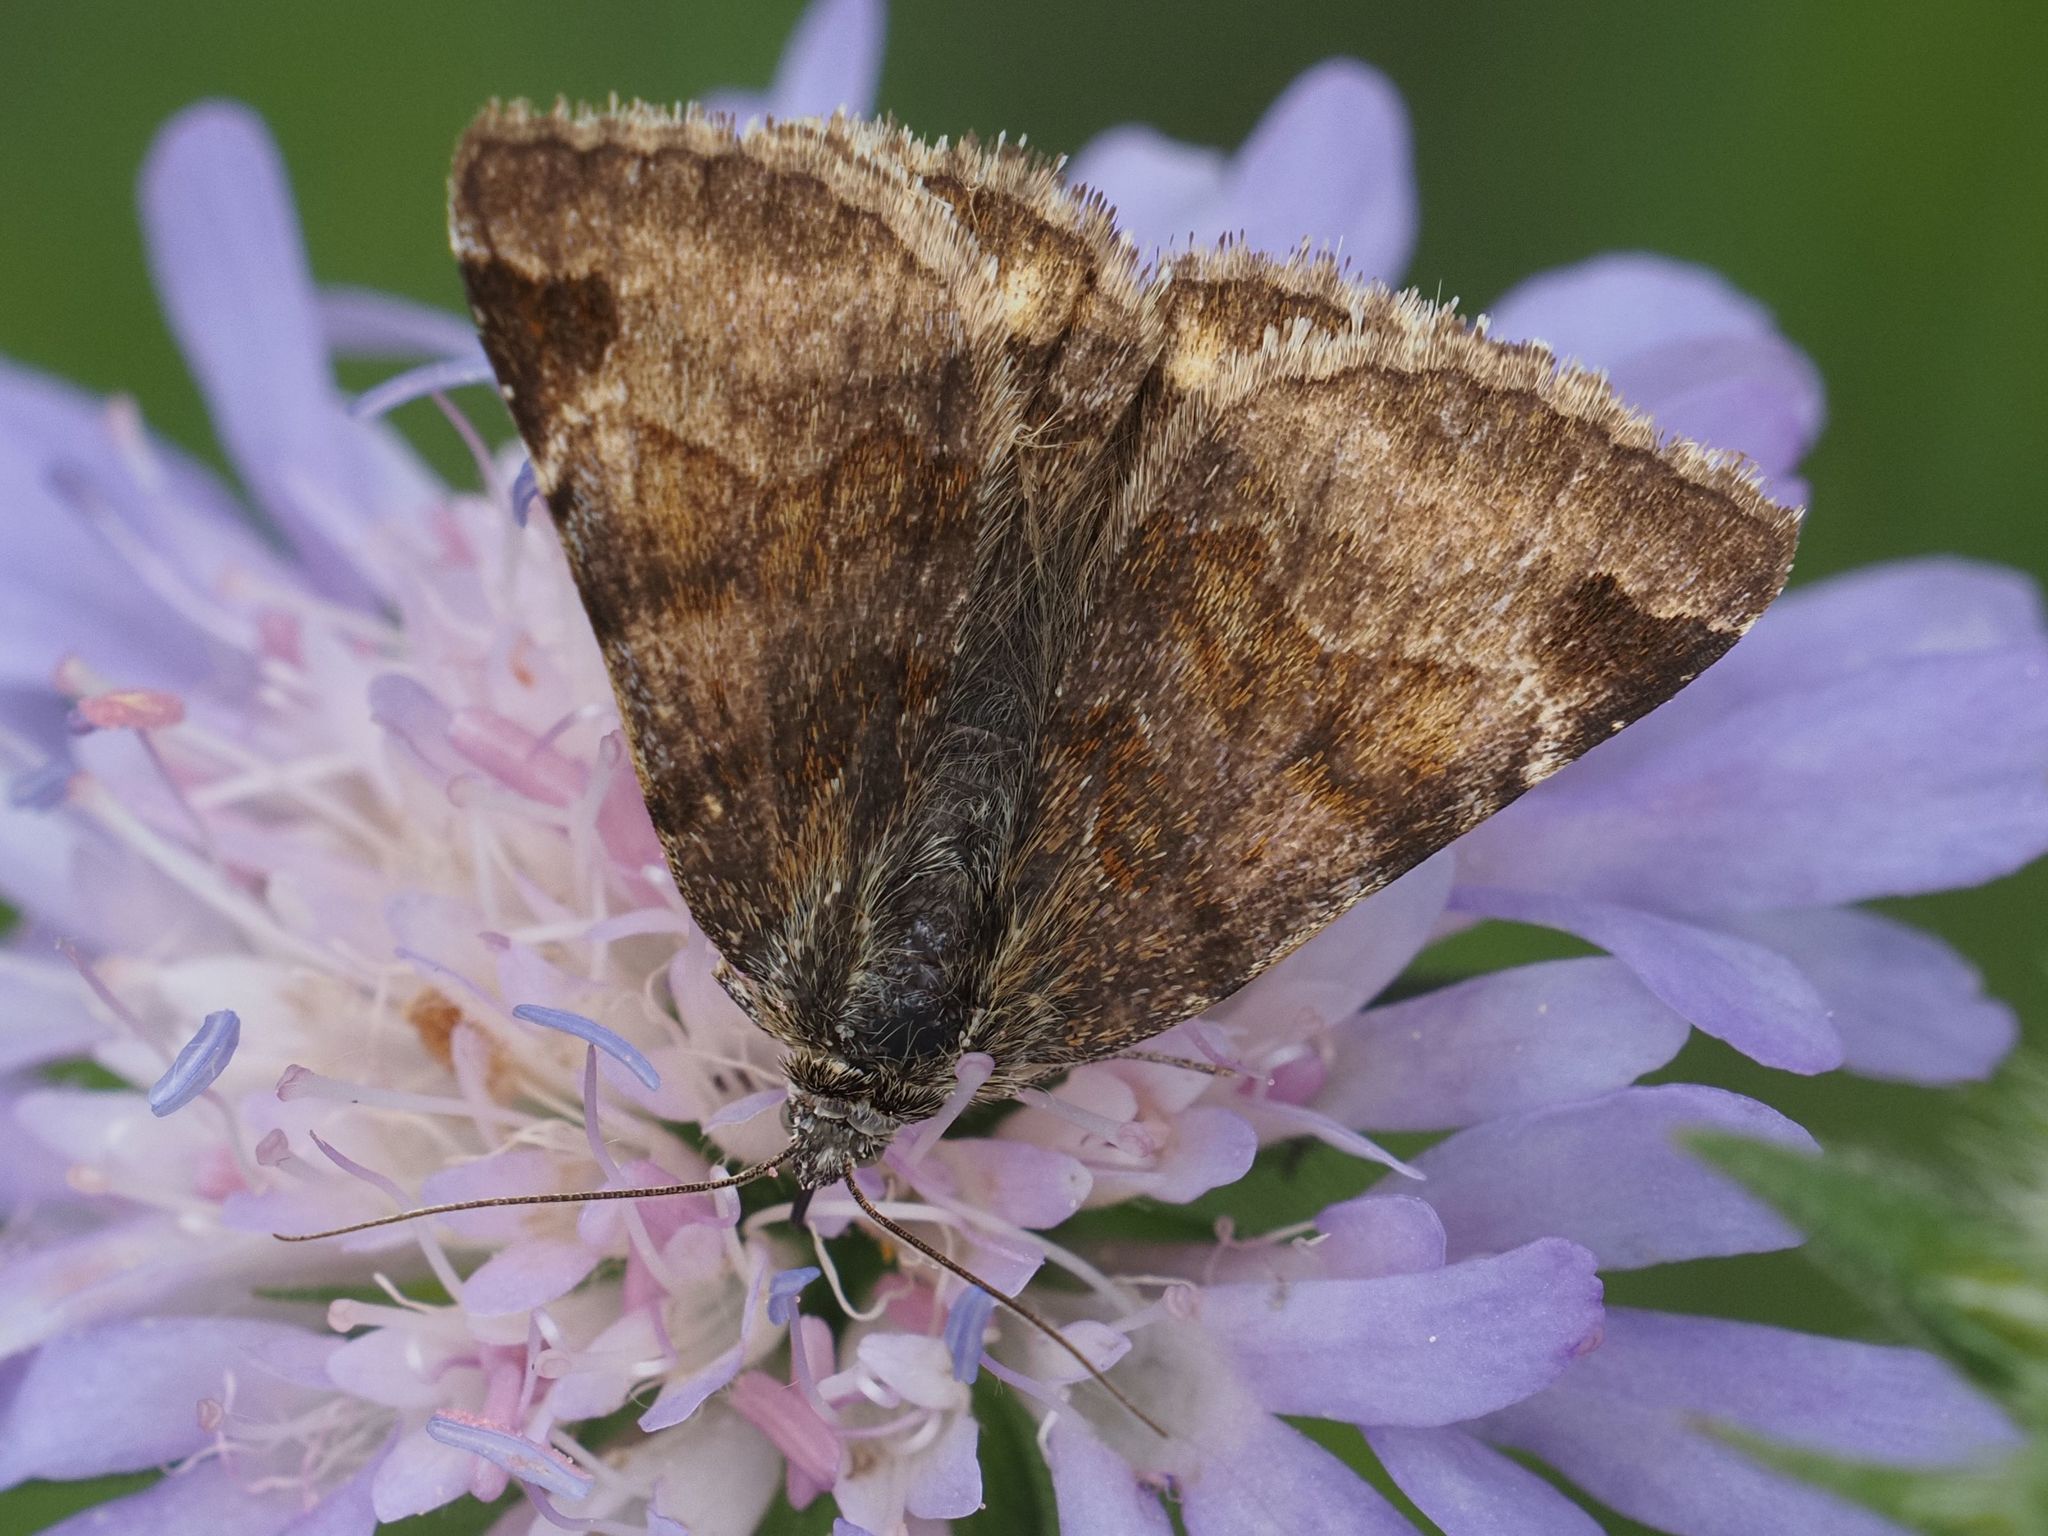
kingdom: Animalia
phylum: Arthropoda
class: Insecta
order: Lepidoptera
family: Erebidae
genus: Euclidia
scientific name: Euclidia glyphica
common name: Burnet companion
